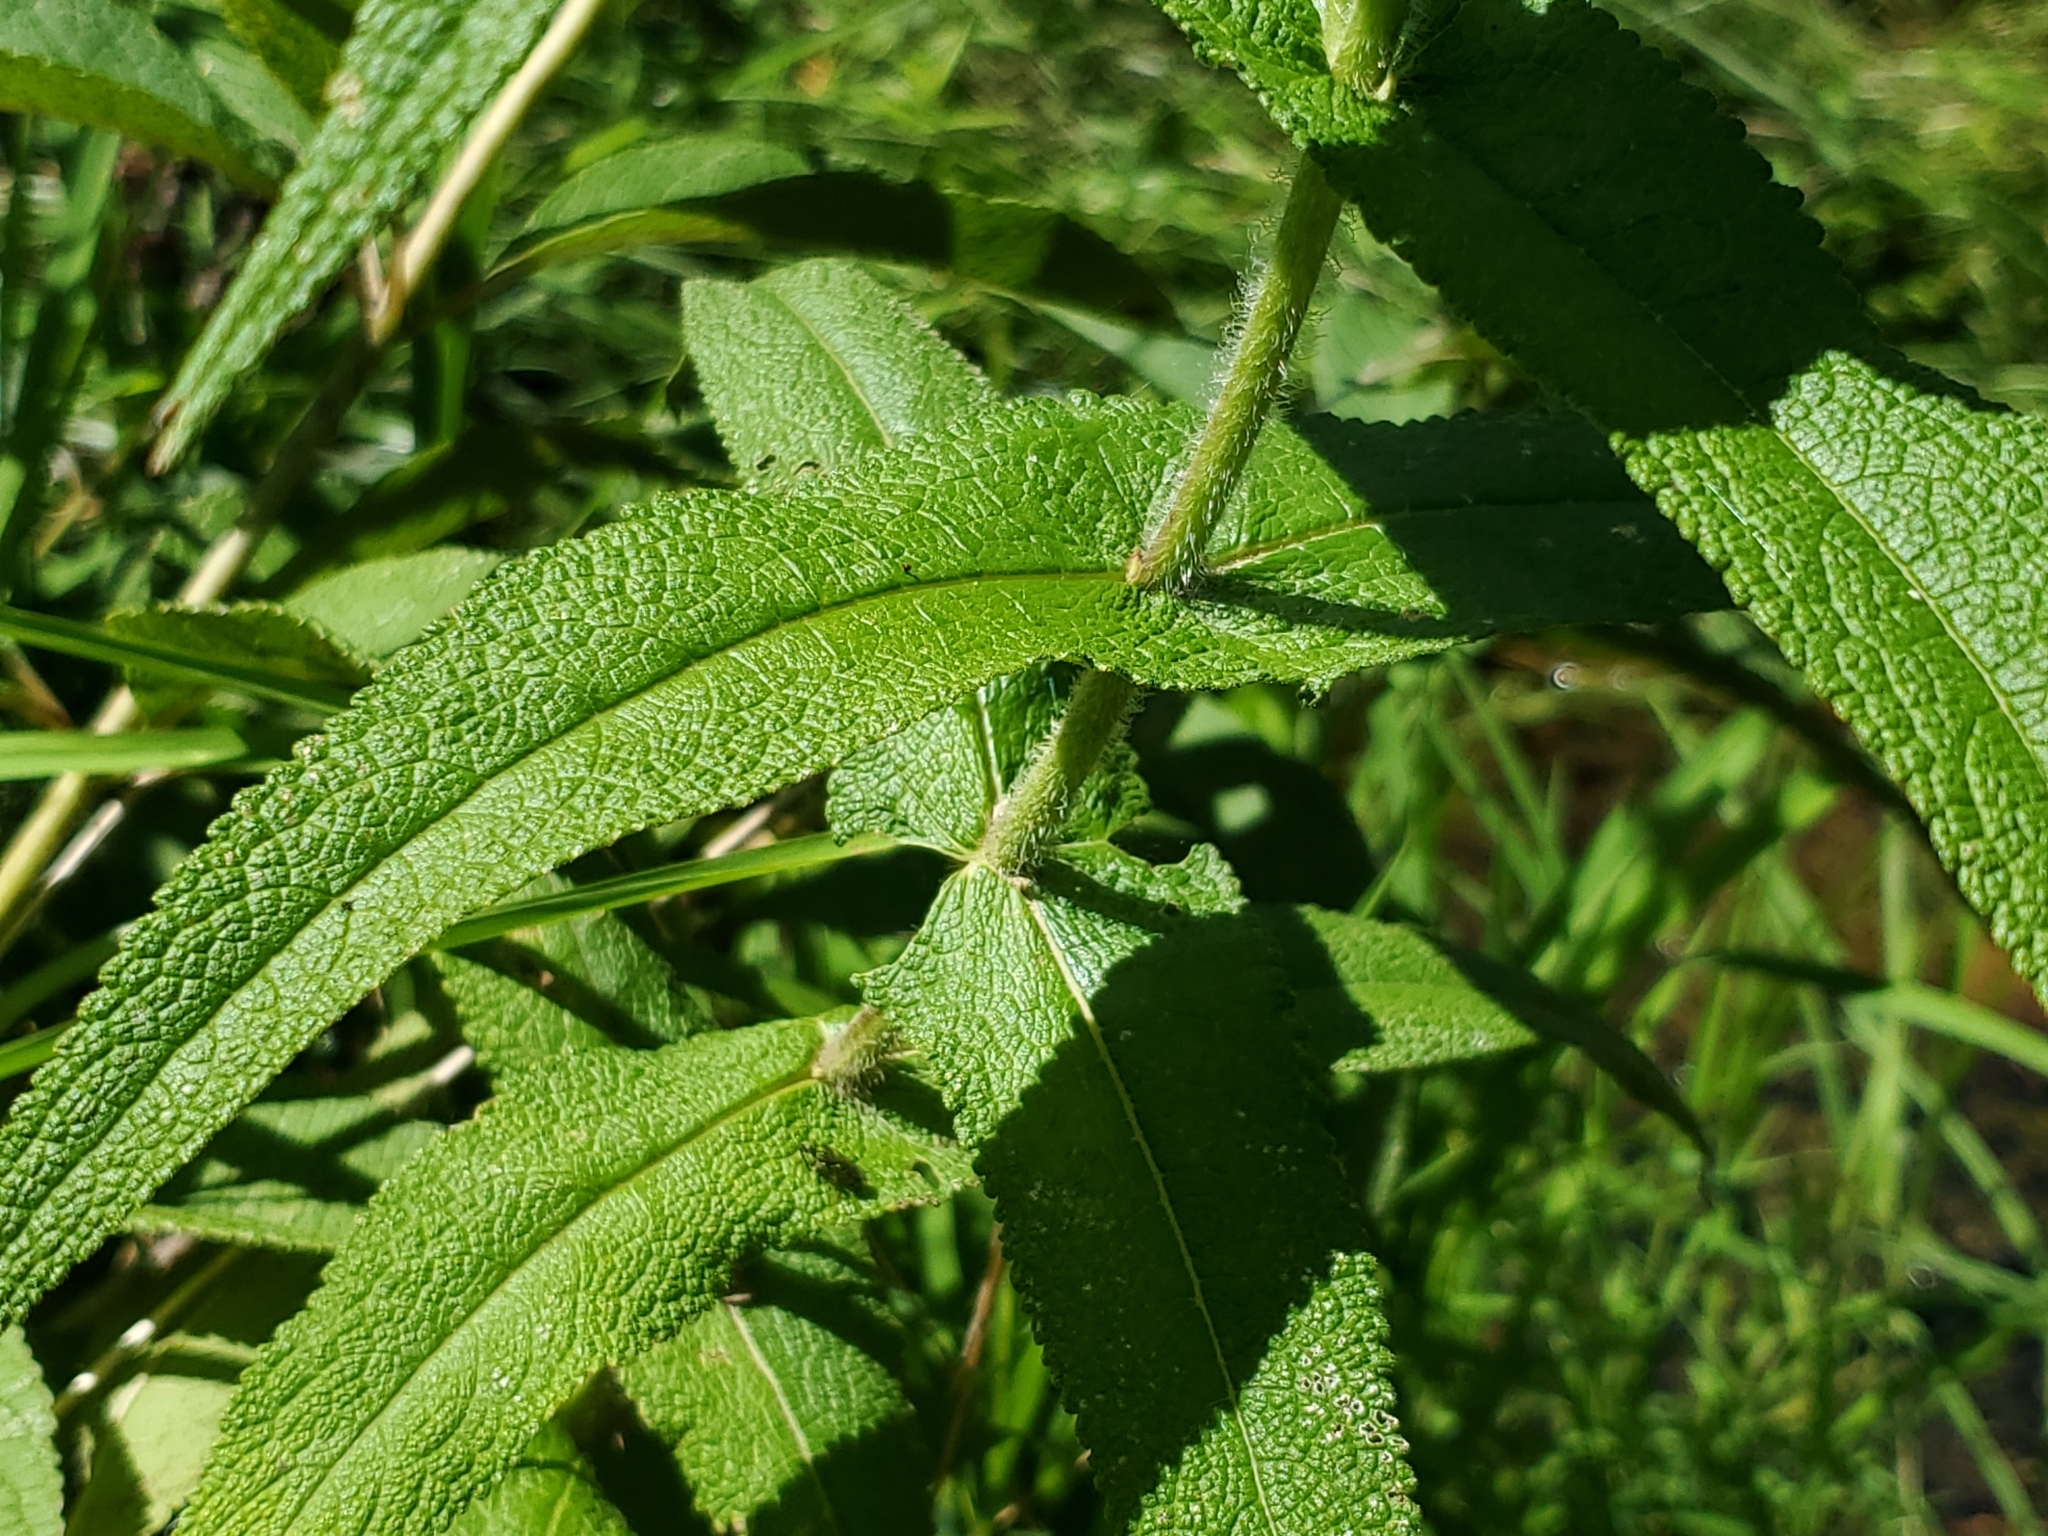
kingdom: Plantae
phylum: Tracheophyta
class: Magnoliopsida
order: Asterales
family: Asteraceae
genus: Eupatorium
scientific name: Eupatorium perfoliatum
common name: Boneset
